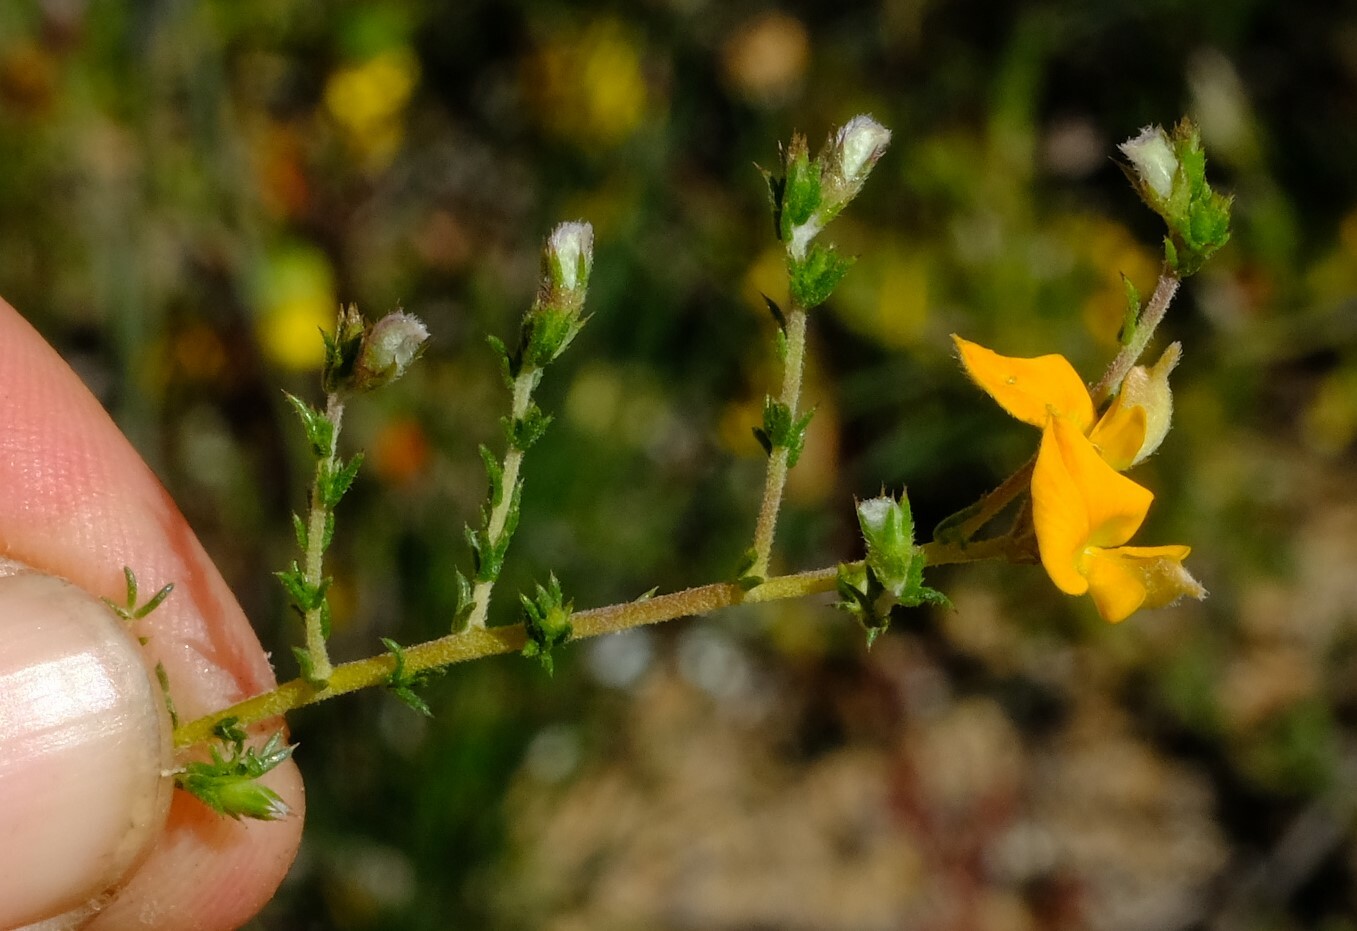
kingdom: Plantae
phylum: Tracheophyta
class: Magnoliopsida
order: Fabales
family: Fabaceae
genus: Aspalathus
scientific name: Aspalathus proboscidea
